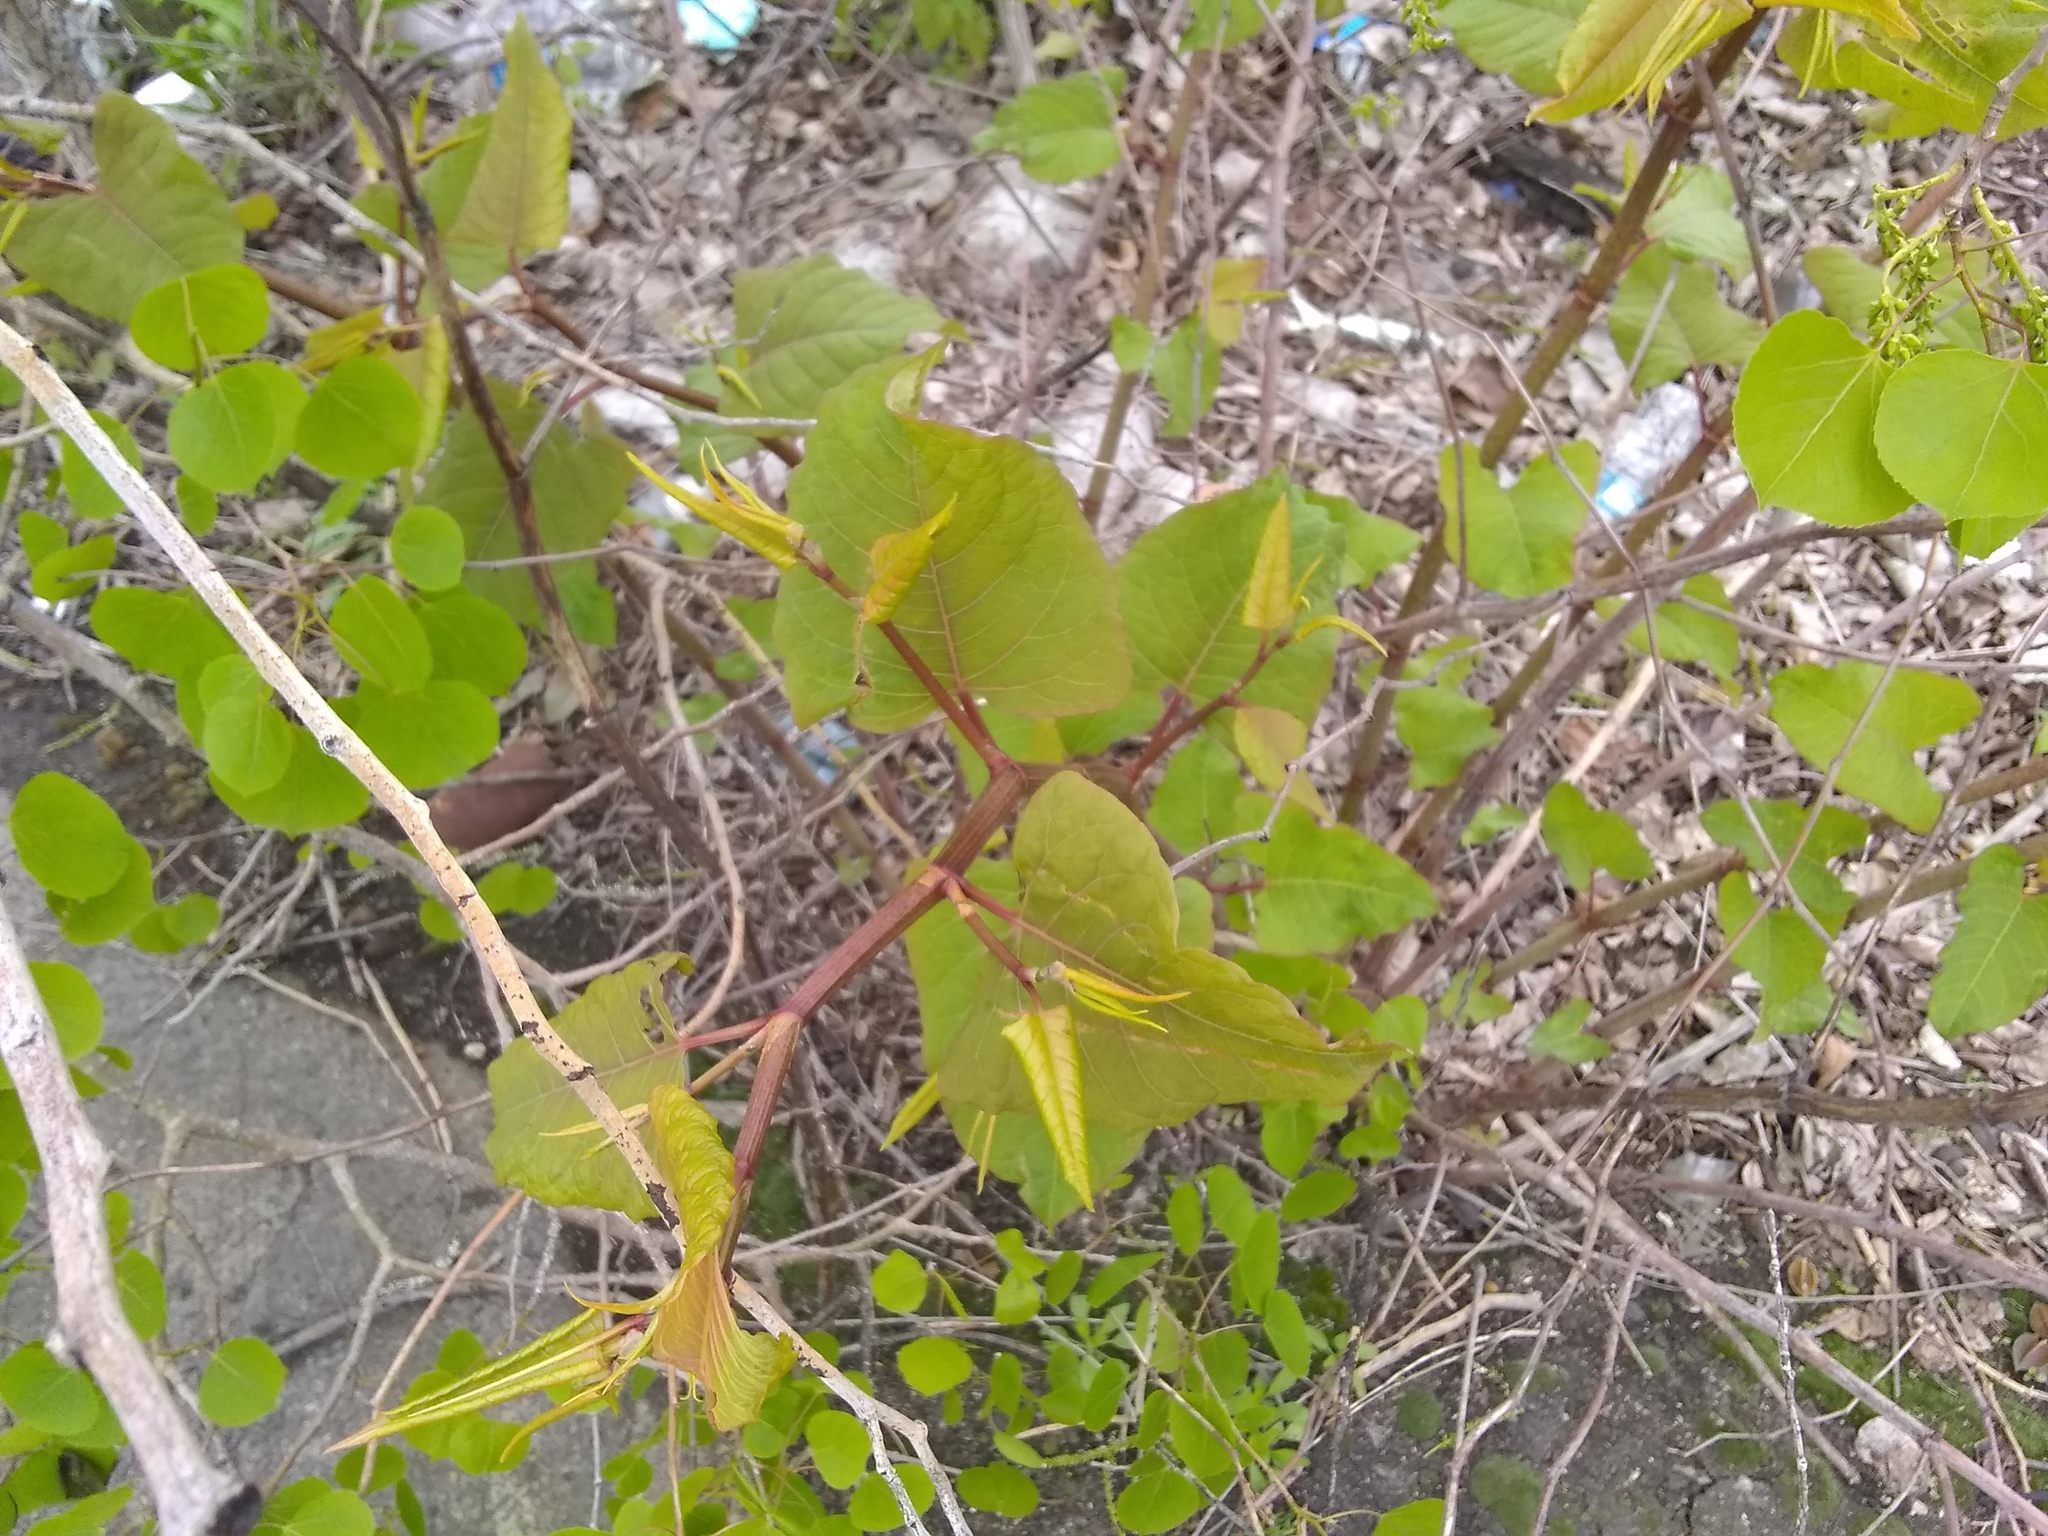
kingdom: Plantae
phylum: Tracheophyta
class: Magnoliopsida
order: Caryophyllales
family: Polygonaceae
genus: Reynoutria
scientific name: Reynoutria japonica
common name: Japanese knotweed
